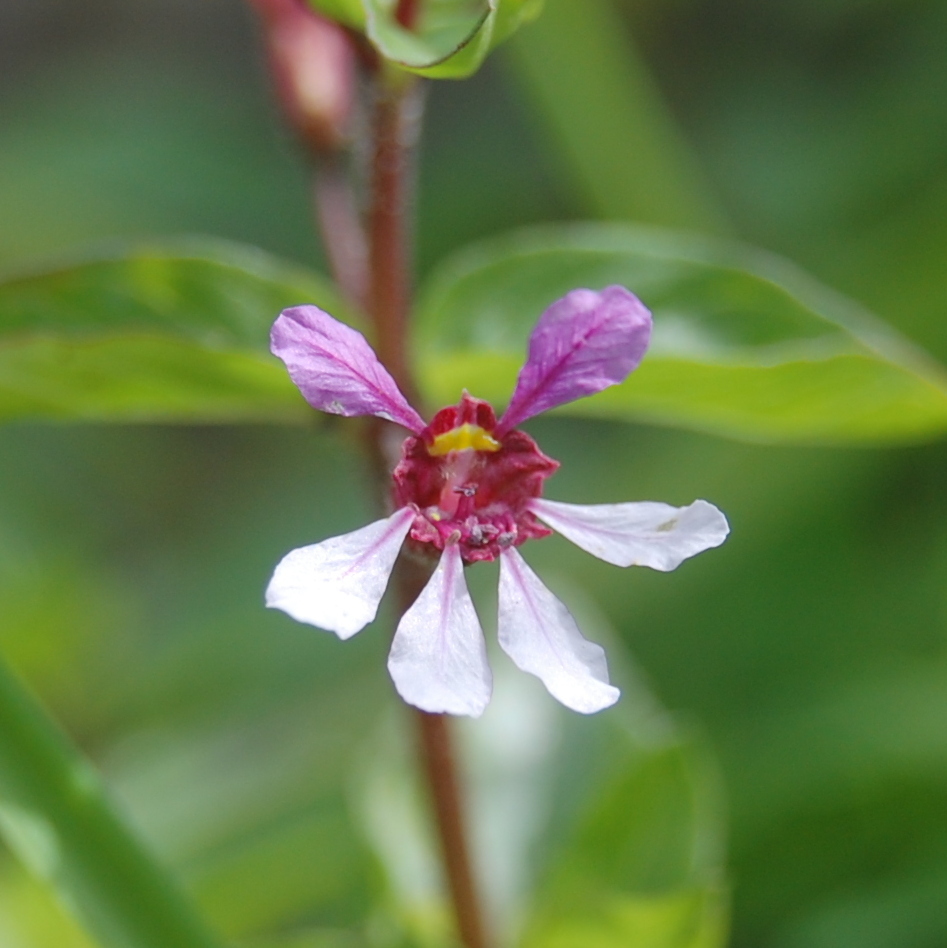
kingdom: Plantae
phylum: Tracheophyta
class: Magnoliopsida
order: Myrtales
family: Lythraceae
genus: Cuphea
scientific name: Cuphea lindmaniana
